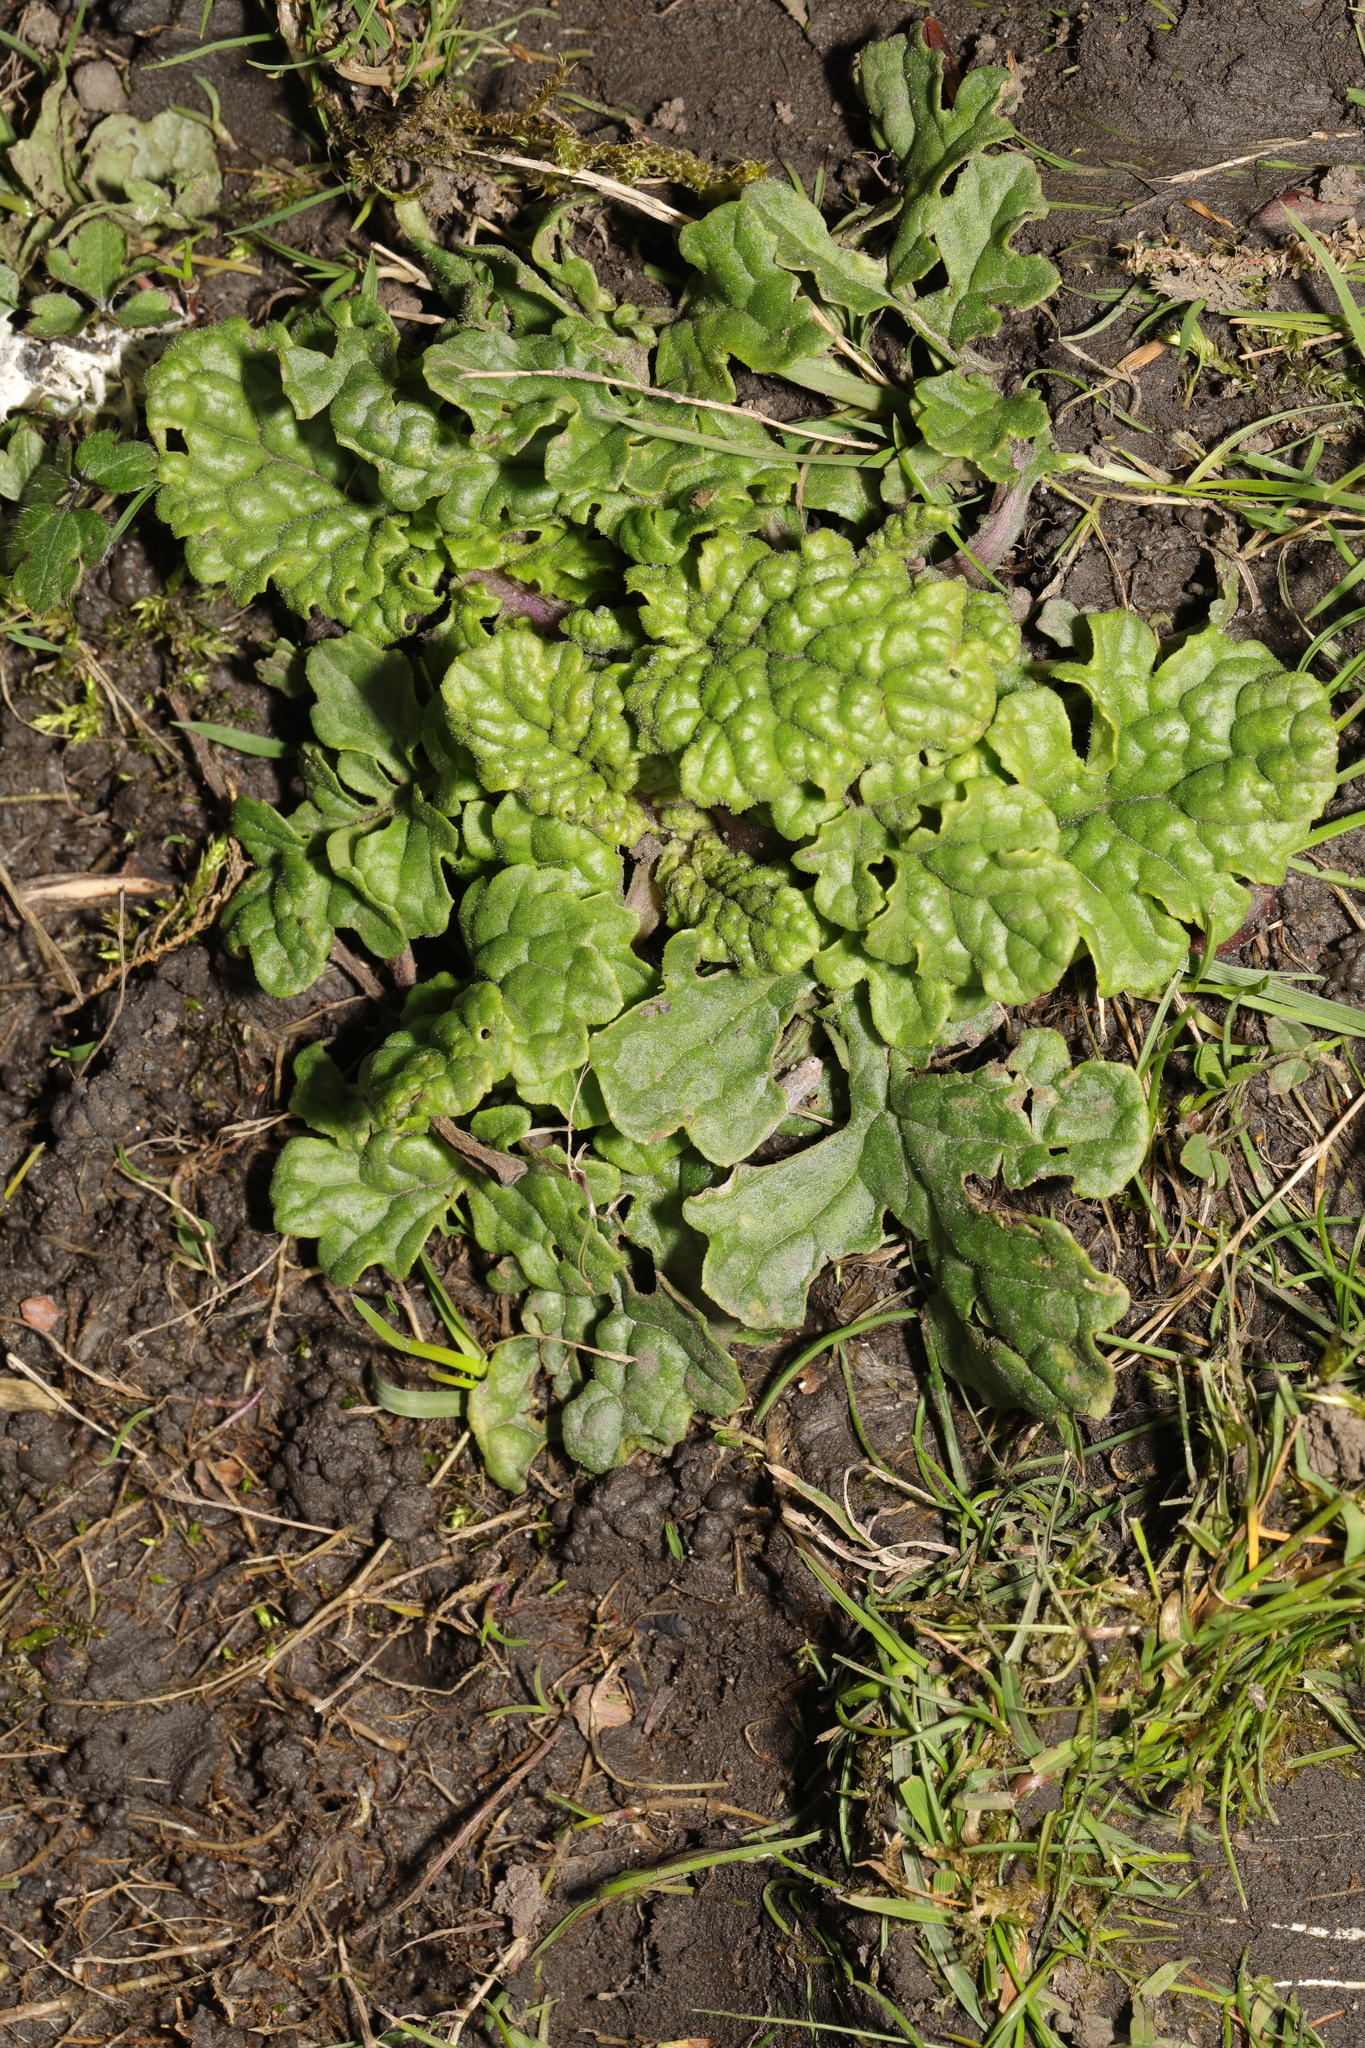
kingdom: Plantae
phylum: Tracheophyta
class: Magnoliopsida
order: Asterales
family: Asteraceae
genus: Jacobaea
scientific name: Jacobaea vulgaris
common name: Stinking willie
